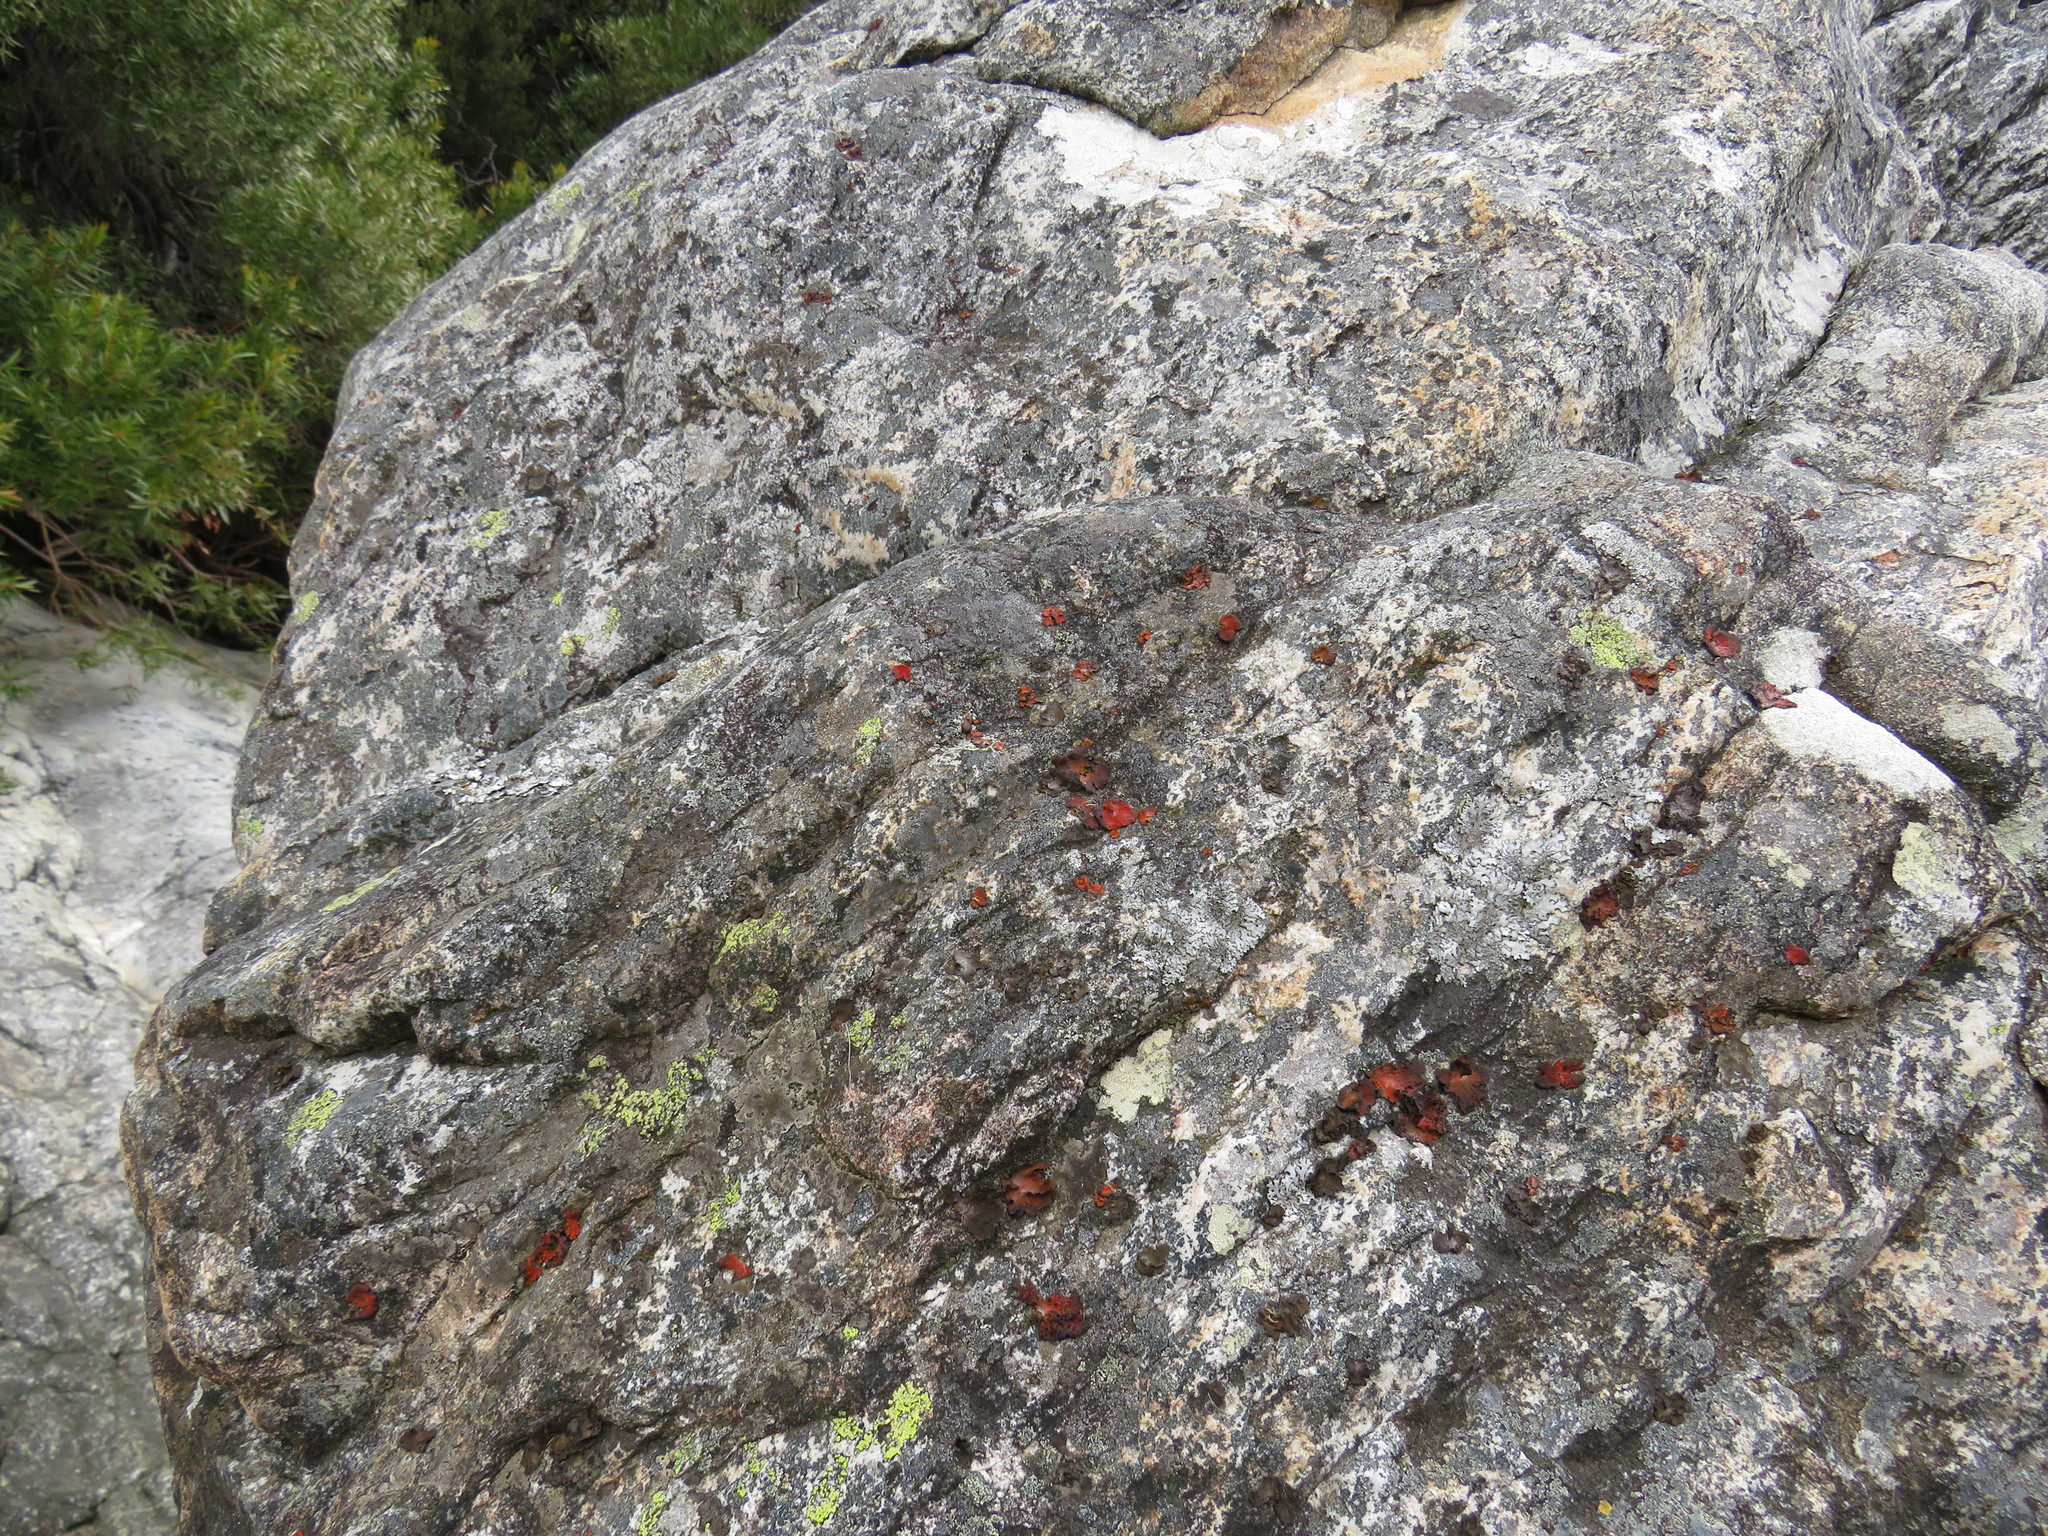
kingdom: Fungi
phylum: Ascomycota
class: Lecanoromycetes
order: Umbilicariales
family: Umbilicariaceae
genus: Lasallia
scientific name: Lasallia rubiginosa
